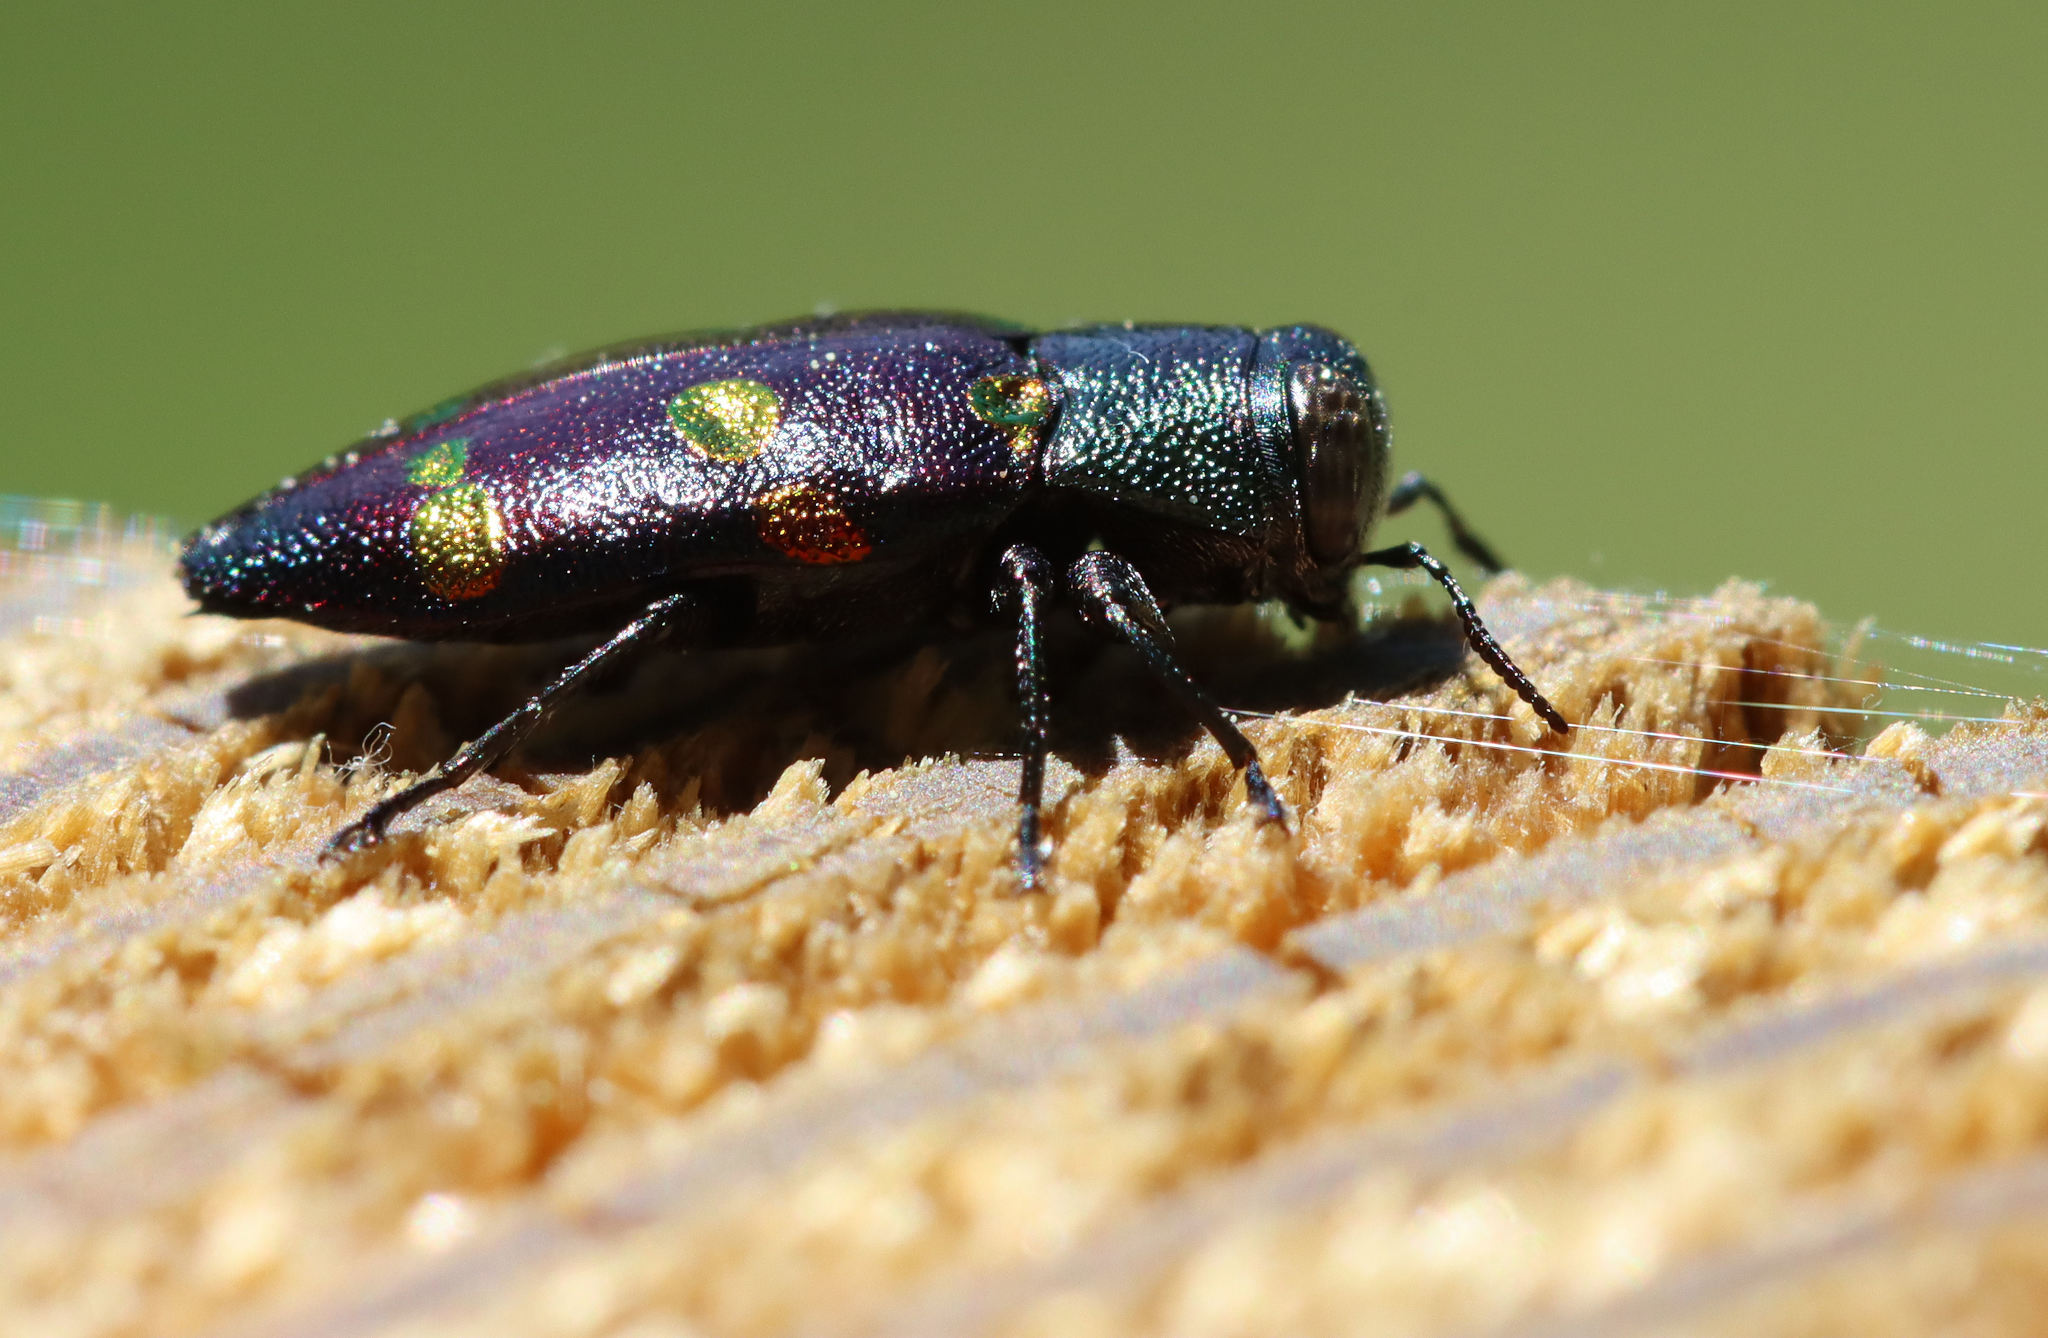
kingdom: Animalia
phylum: Arthropoda
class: Insecta
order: Coleoptera
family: Buprestidae
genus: Chrysobothris
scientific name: Chrysobothris chrysoela
